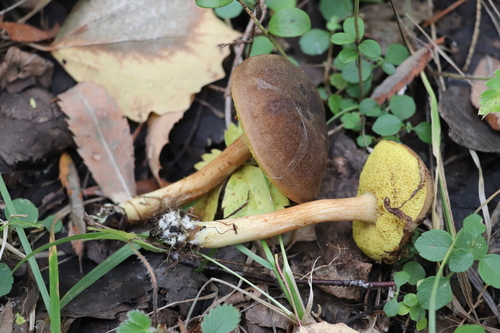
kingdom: Fungi
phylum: Basidiomycota
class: Agaricomycetes
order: Boletales
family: Boletaceae
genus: Xerocomus
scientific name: Xerocomus subtomentosus
